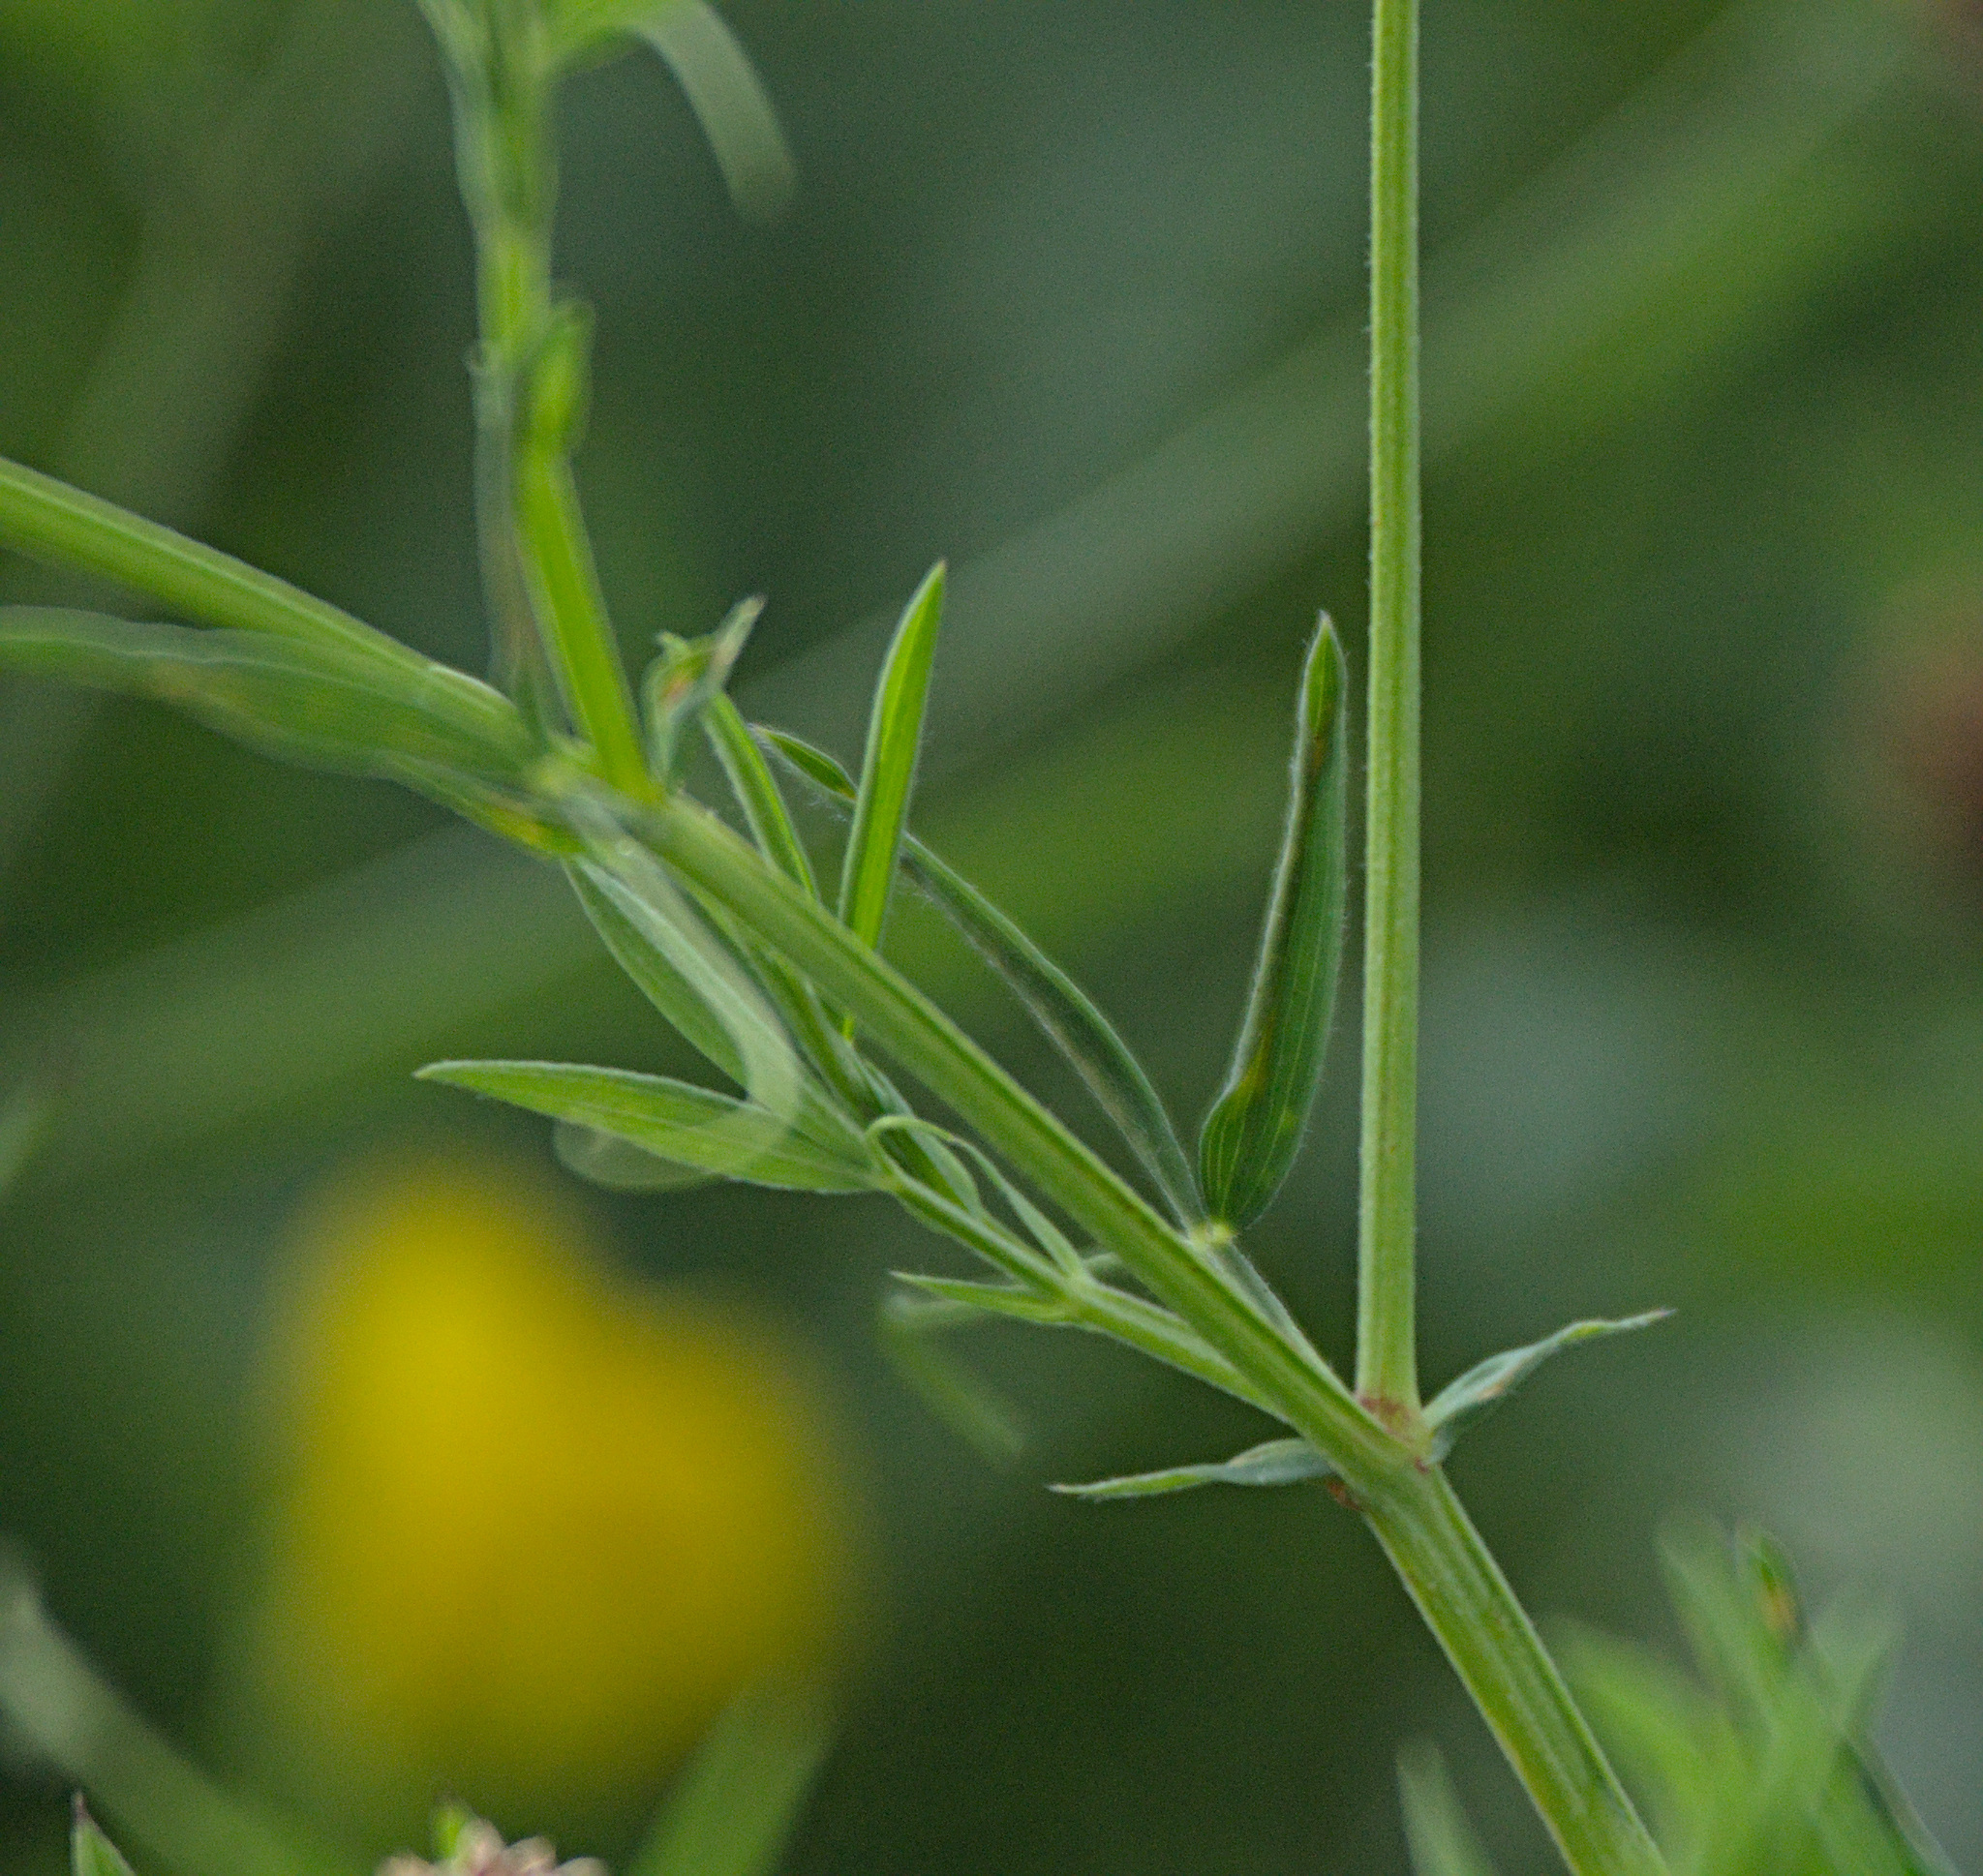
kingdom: Plantae
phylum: Tracheophyta
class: Magnoliopsida
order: Fabales
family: Fabaceae
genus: Lathyrus
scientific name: Lathyrus pratensis
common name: Meadow vetchling
